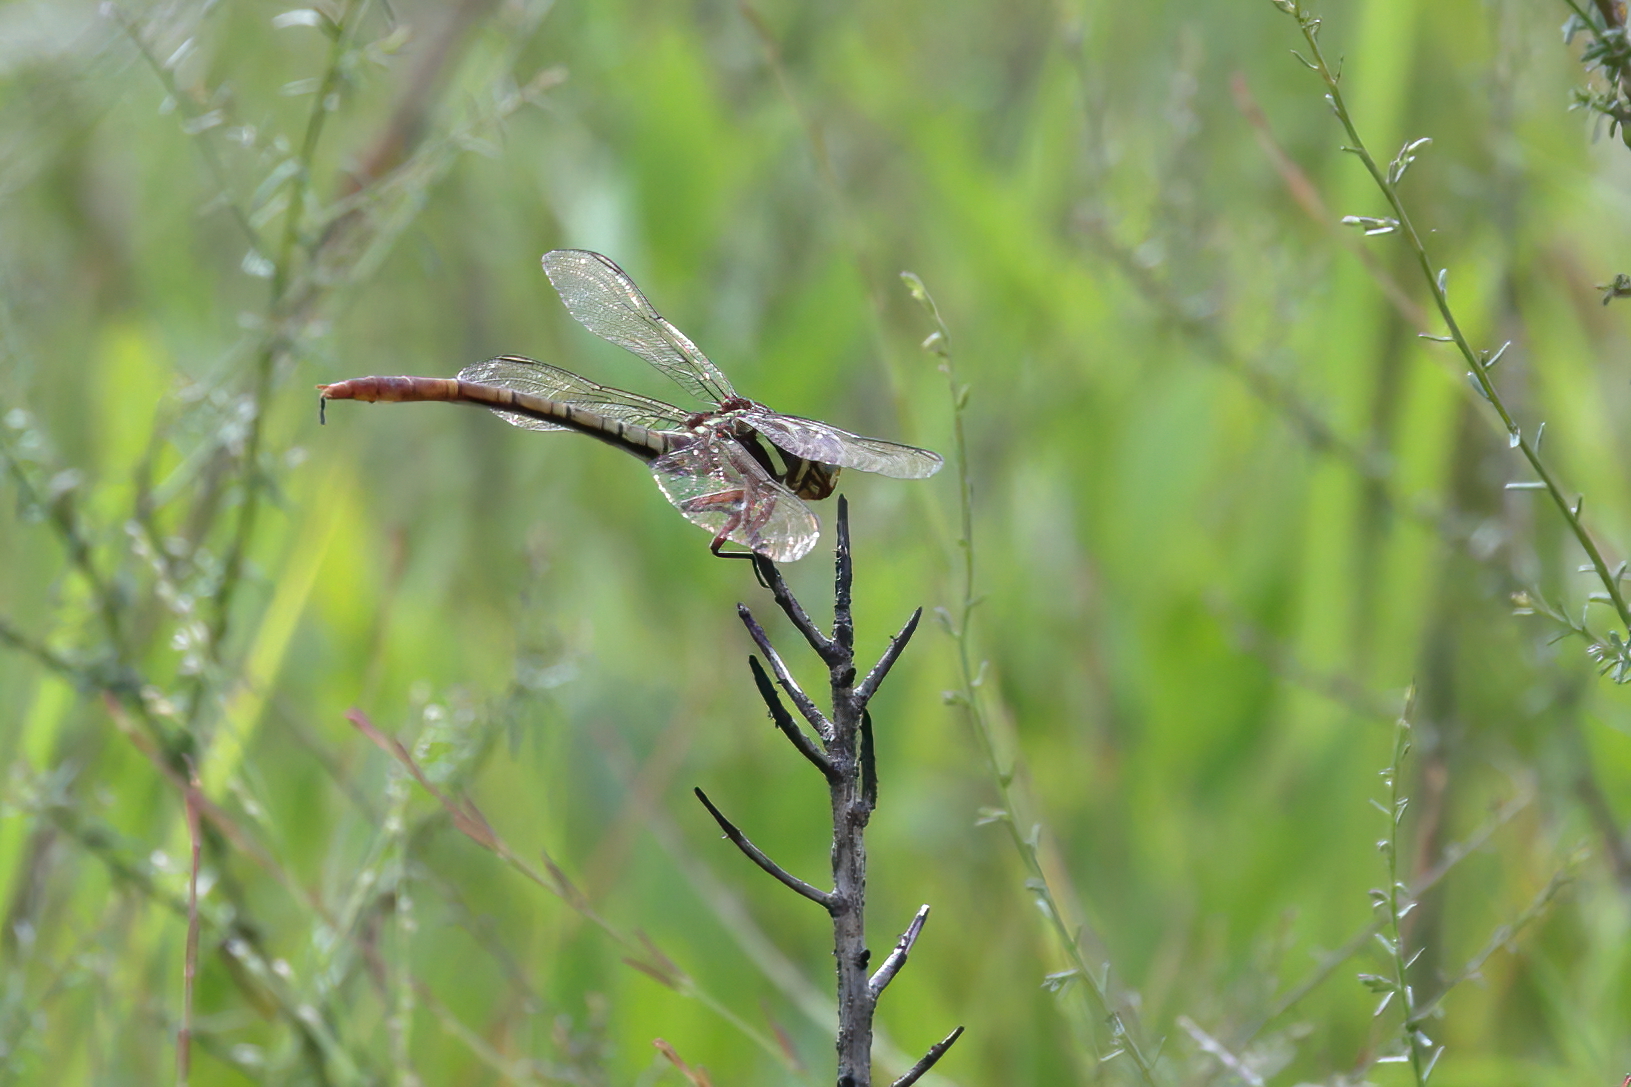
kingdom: Animalia
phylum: Arthropoda
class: Insecta
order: Odonata
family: Gomphidae
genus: Aphylla
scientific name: Aphylla williamsoni
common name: Two-striped forceptail
